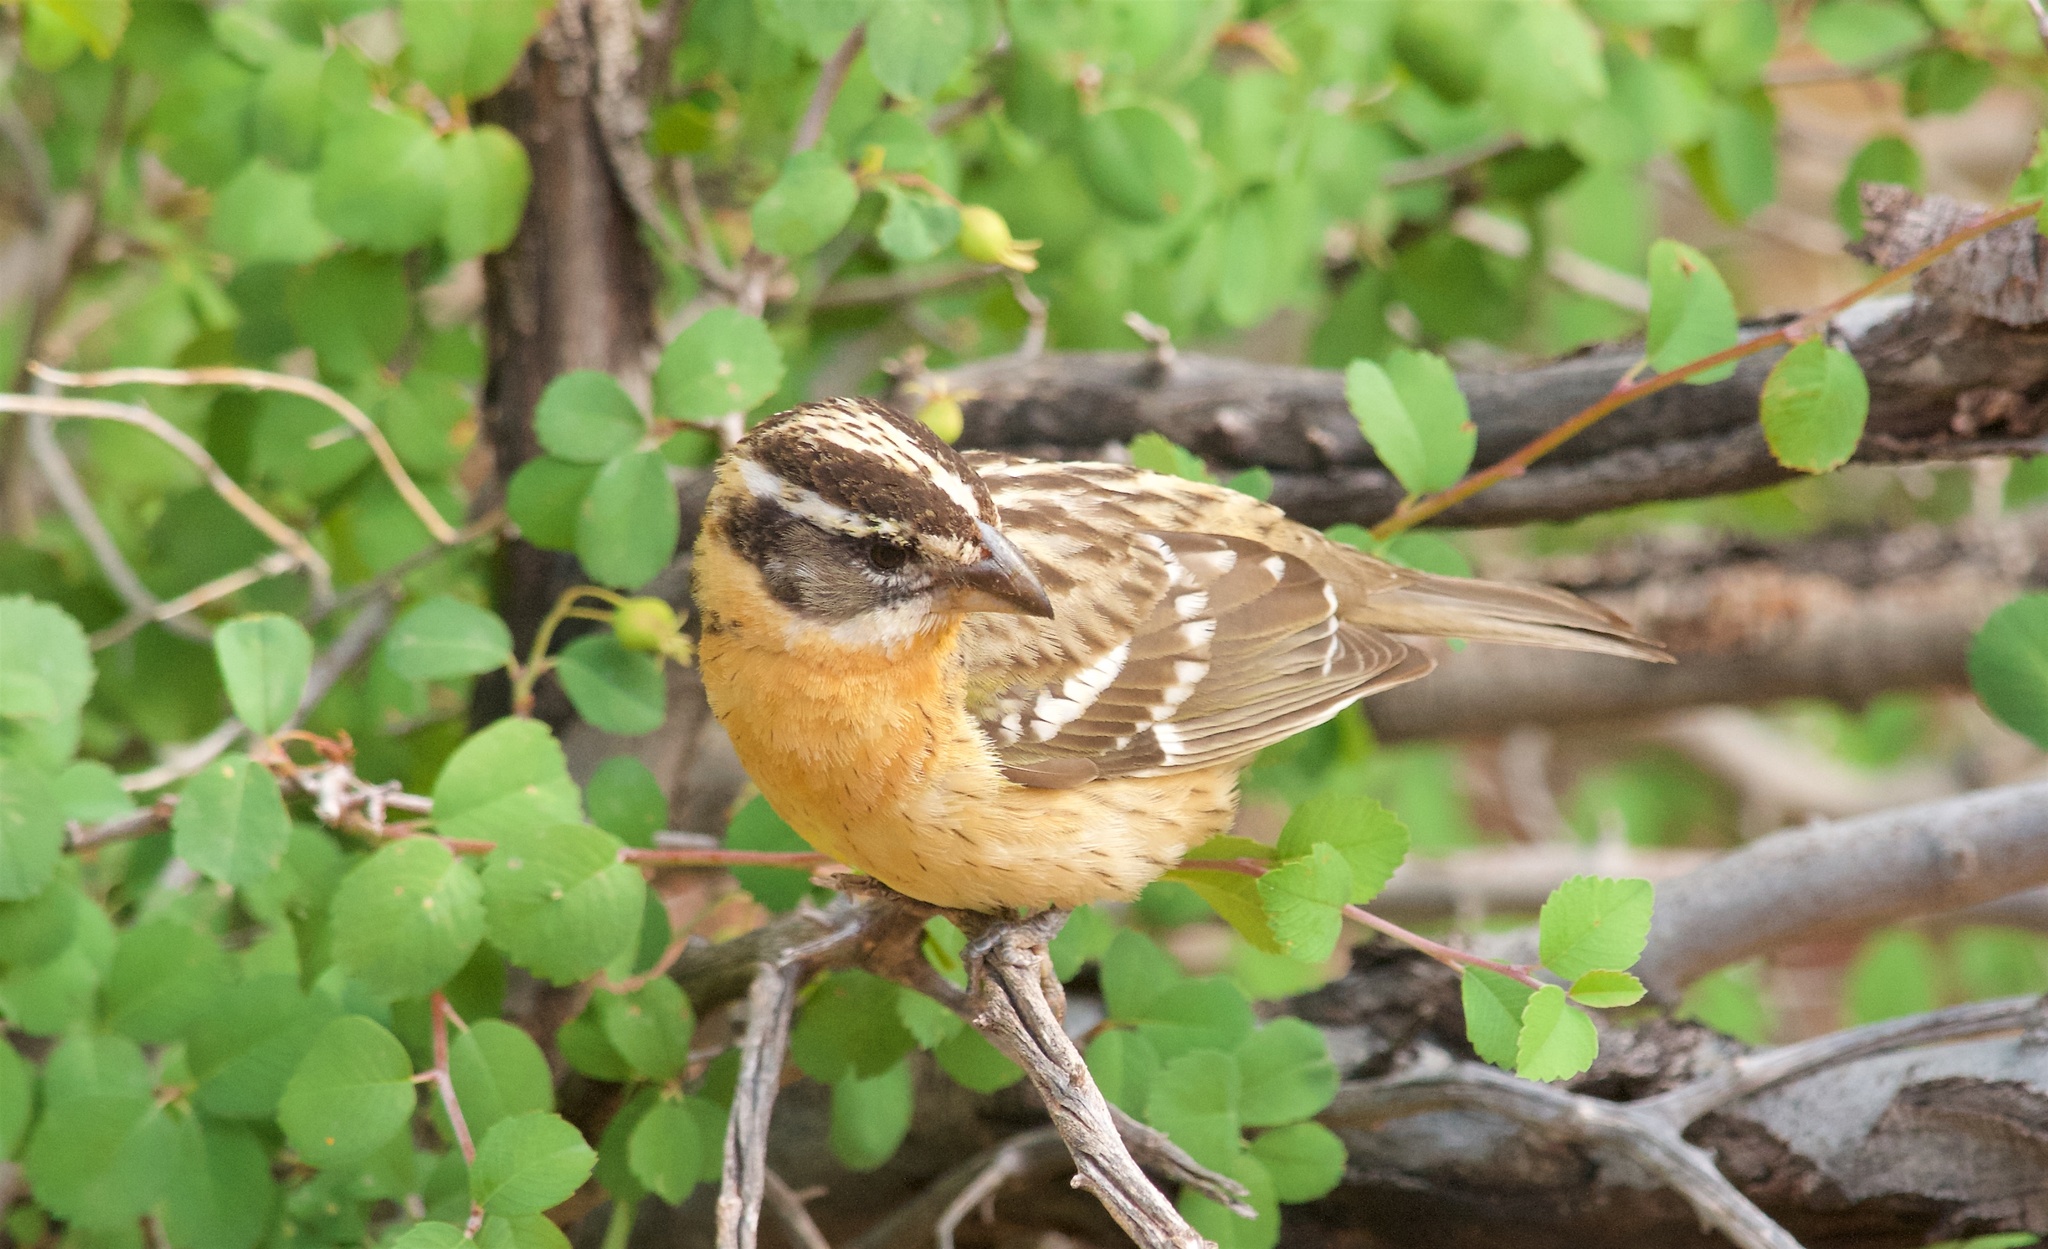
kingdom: Animalia
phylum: Chordata
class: Aves
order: Passeriformes
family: Cardinalidae
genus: Pheucticus
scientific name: Pheucticus melanocephalus
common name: Black-headed grosbeak
